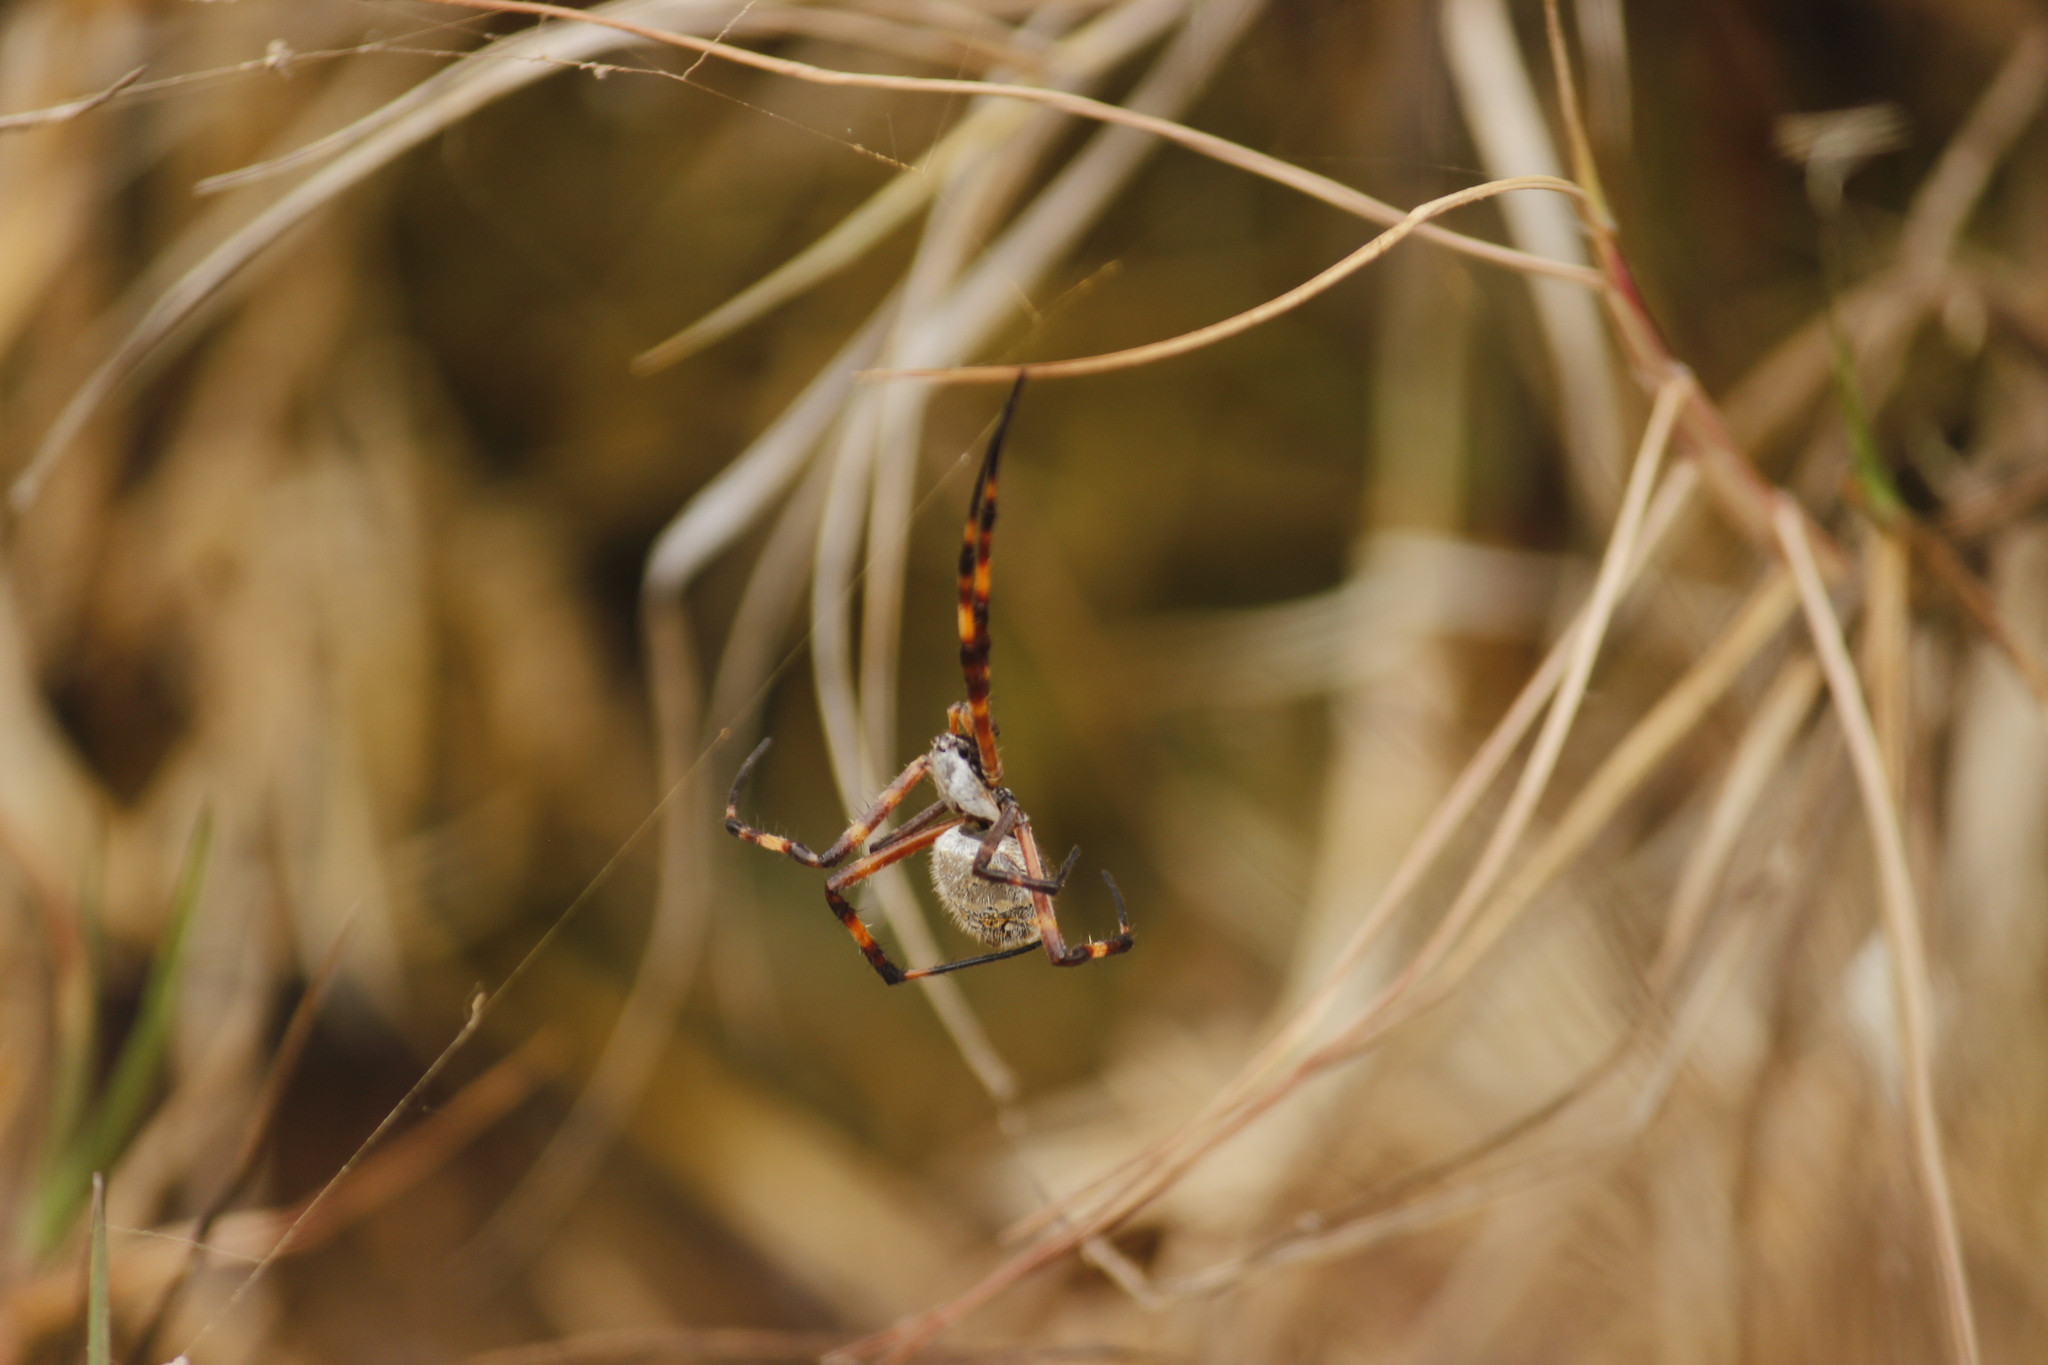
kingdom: Animalia
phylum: Arthropoda
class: Arachnida
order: Araneae
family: Araneidae
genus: Argiope
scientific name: Argiope argentata
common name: Orb weavers
